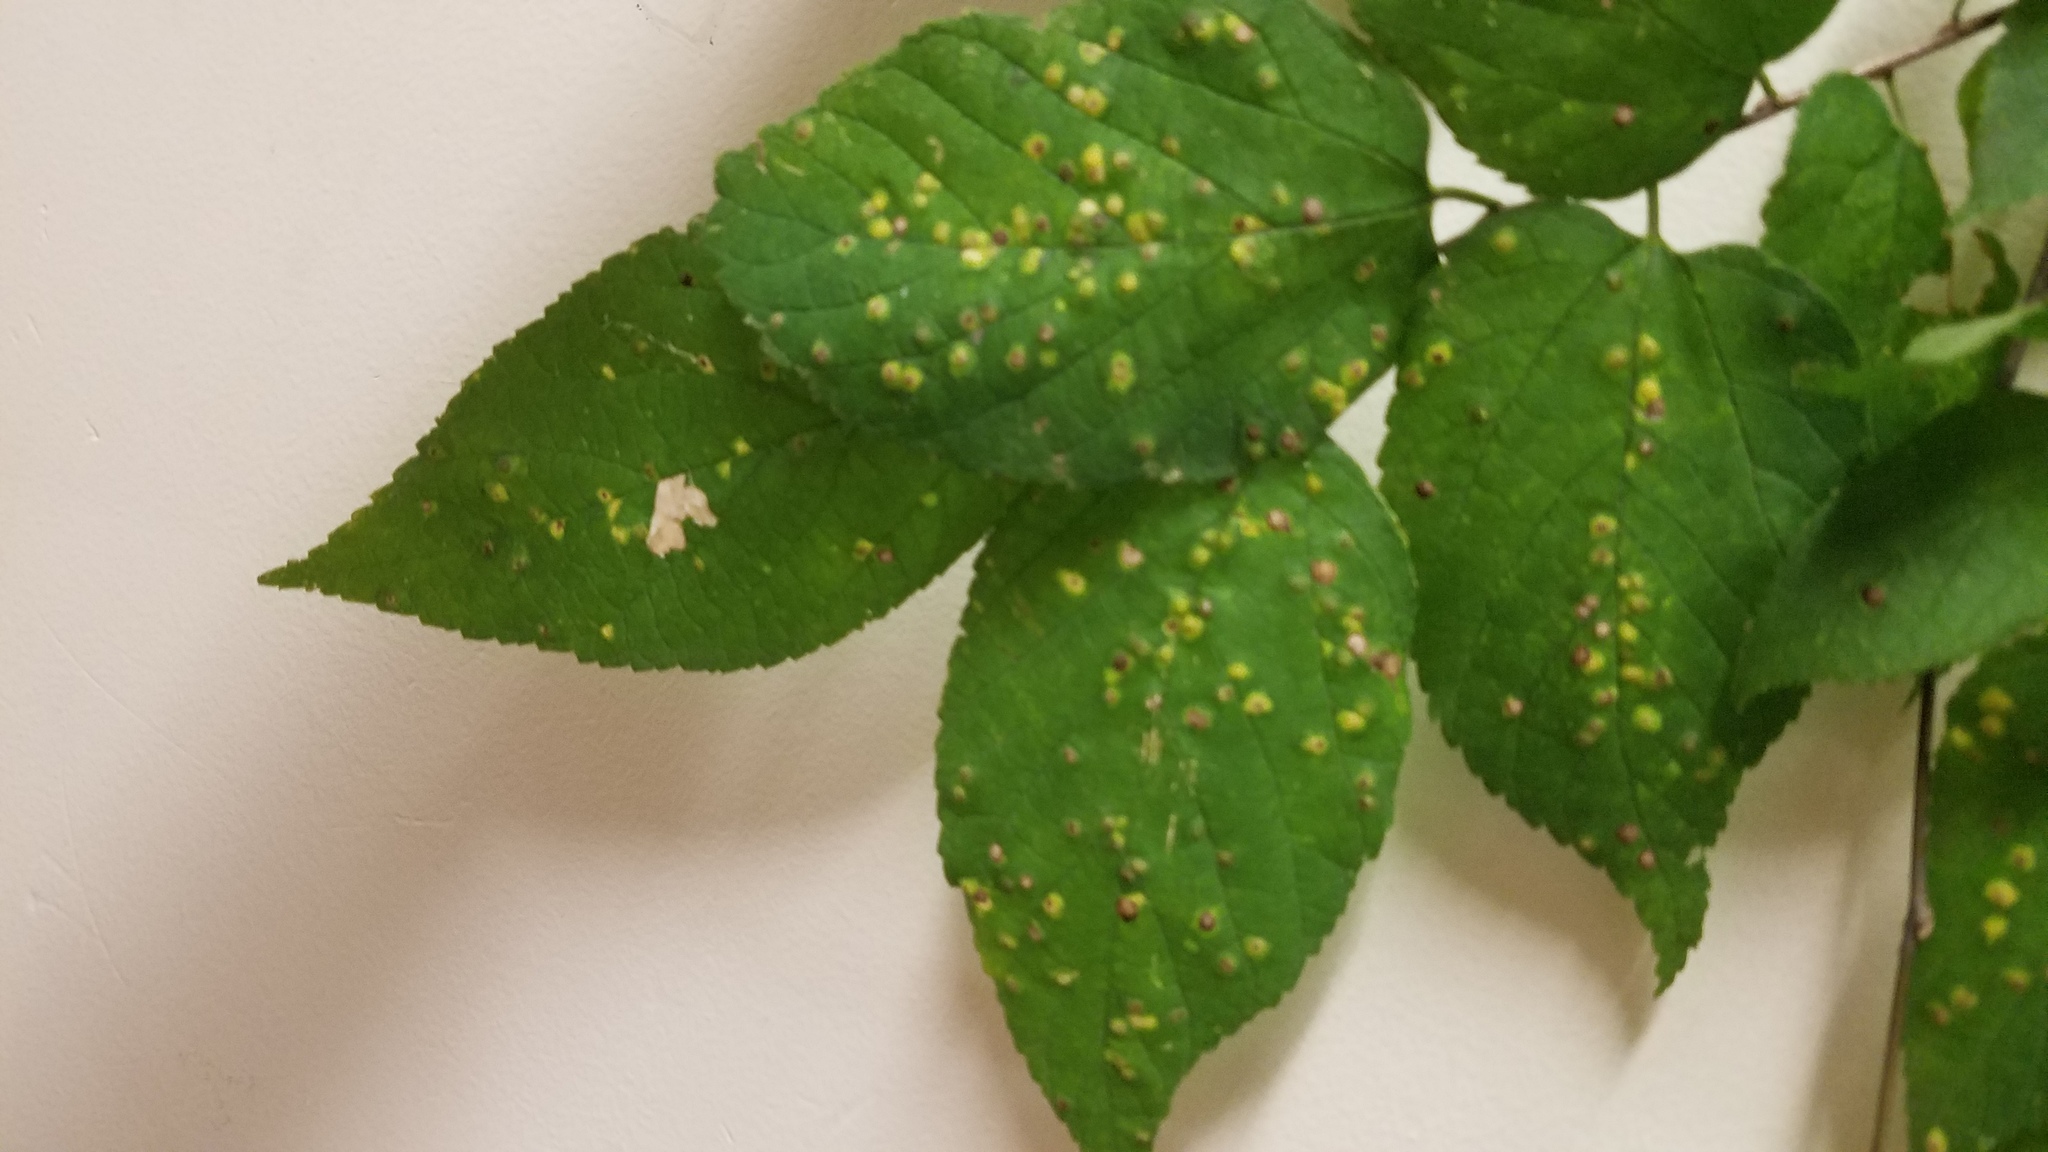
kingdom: Animalia
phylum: Arthropoda
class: Insecta
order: Hemiptera
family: Aphalaridae
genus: Pachypsylla
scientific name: Pachypsylla celtidisvesicula
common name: Hackberry blister gall psyllid
